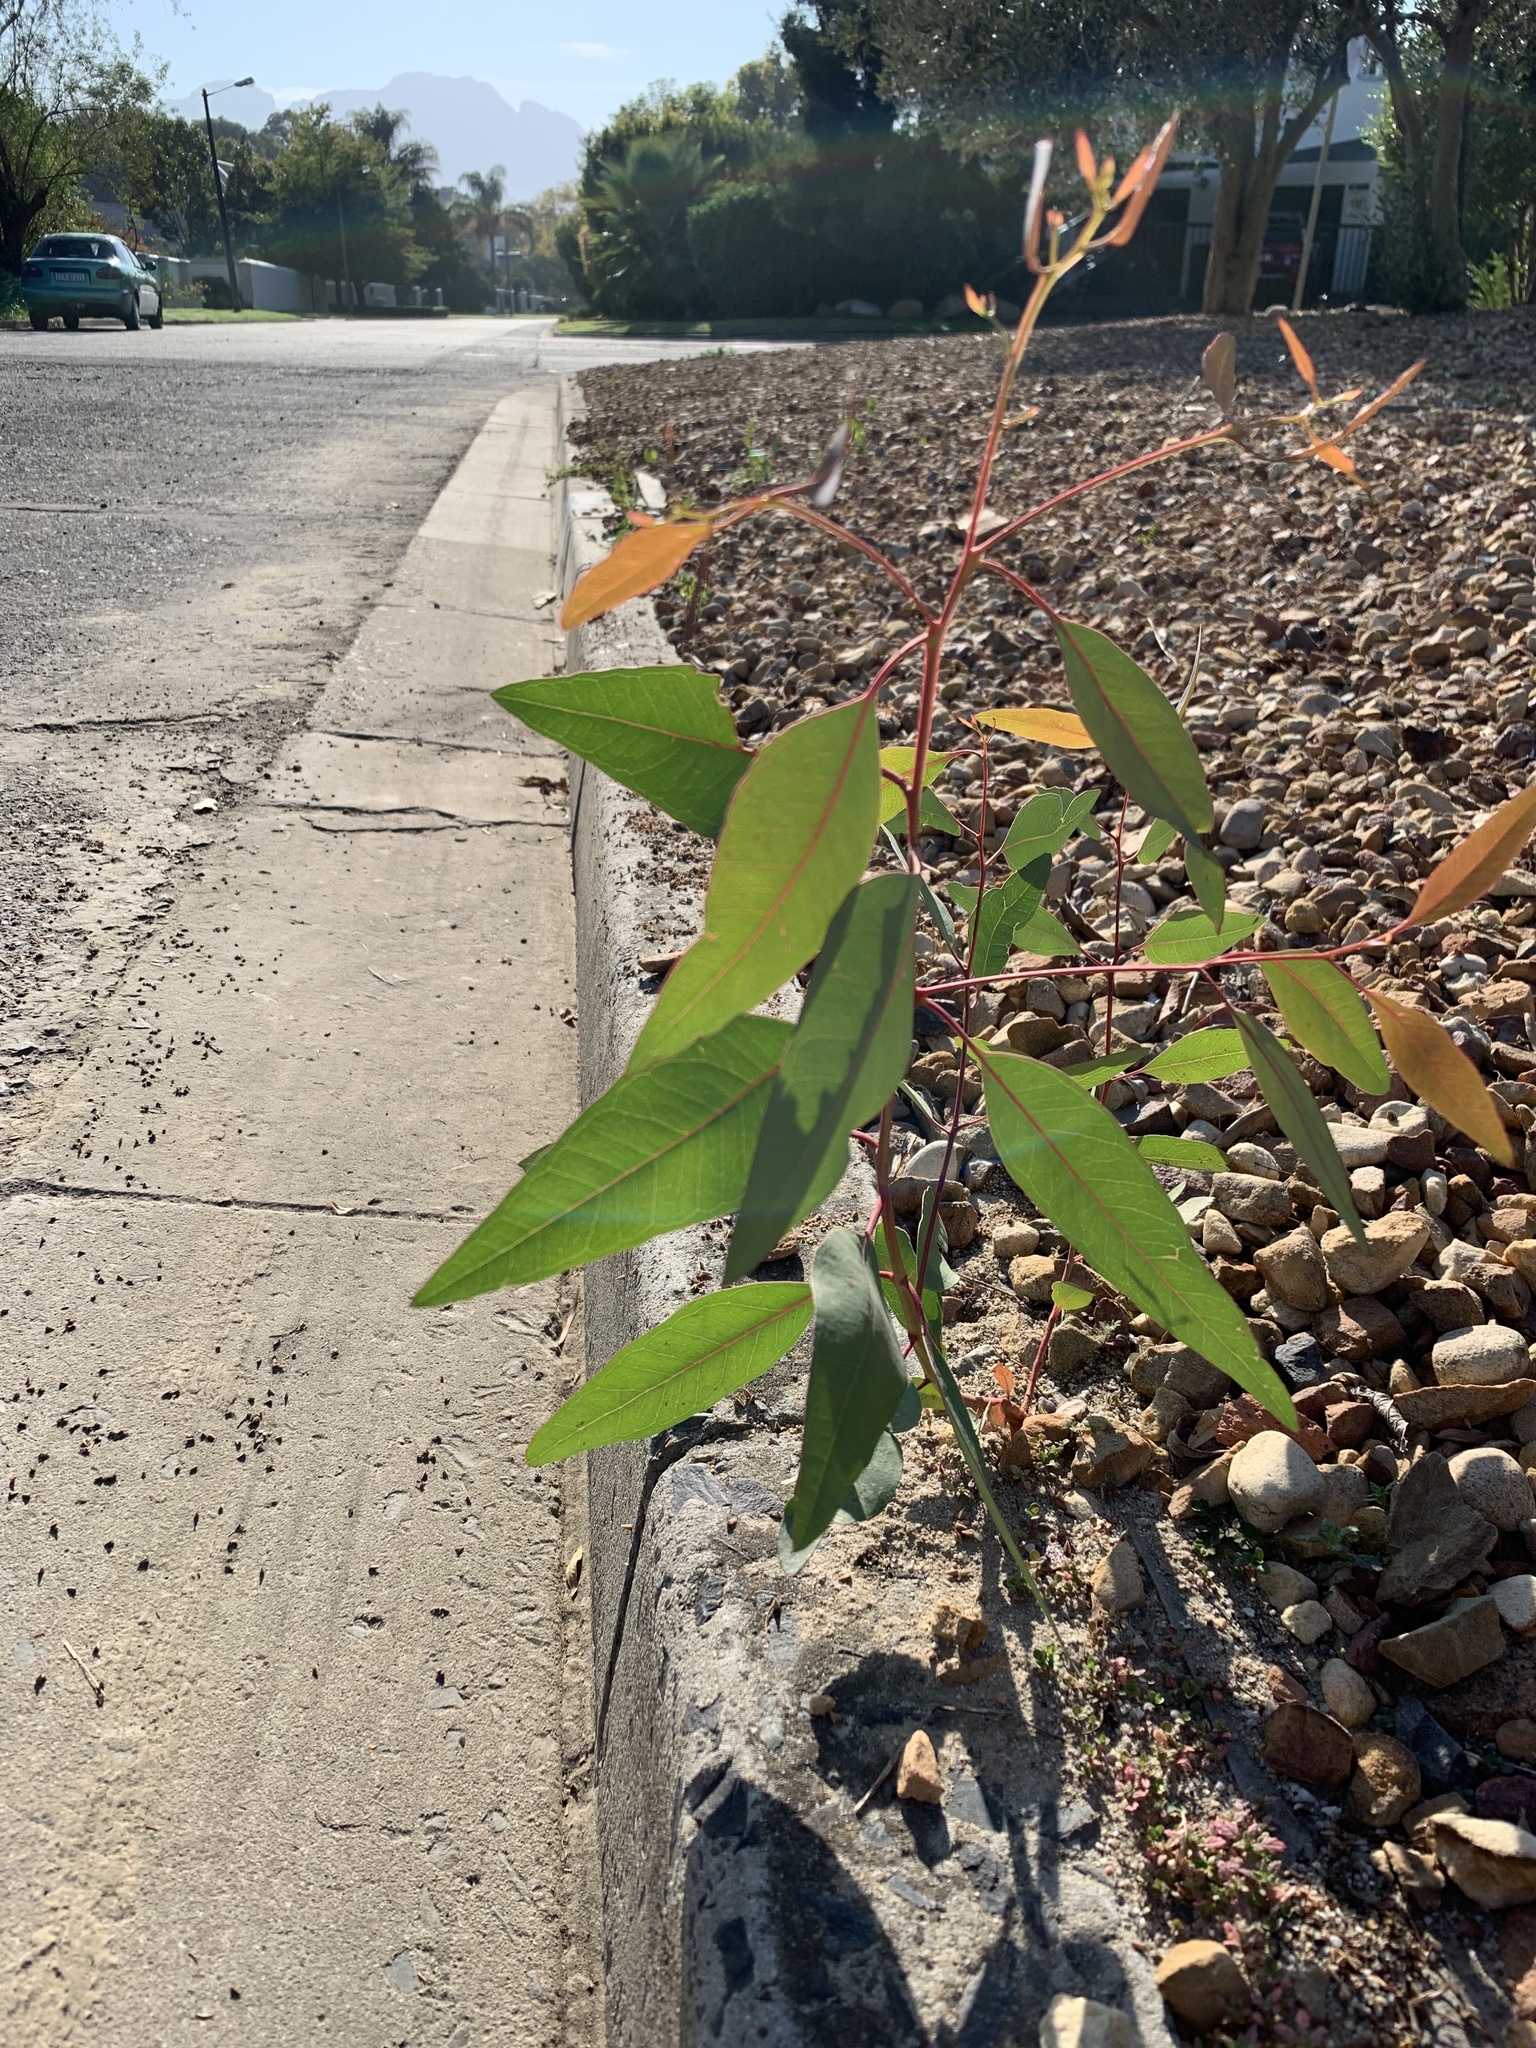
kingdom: Plantae
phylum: Tracheophyta
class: Magnoliopsida
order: Myrtales
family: Myrtaceae
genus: Eucalyptus
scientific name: Eucalyptus camaldulensis
